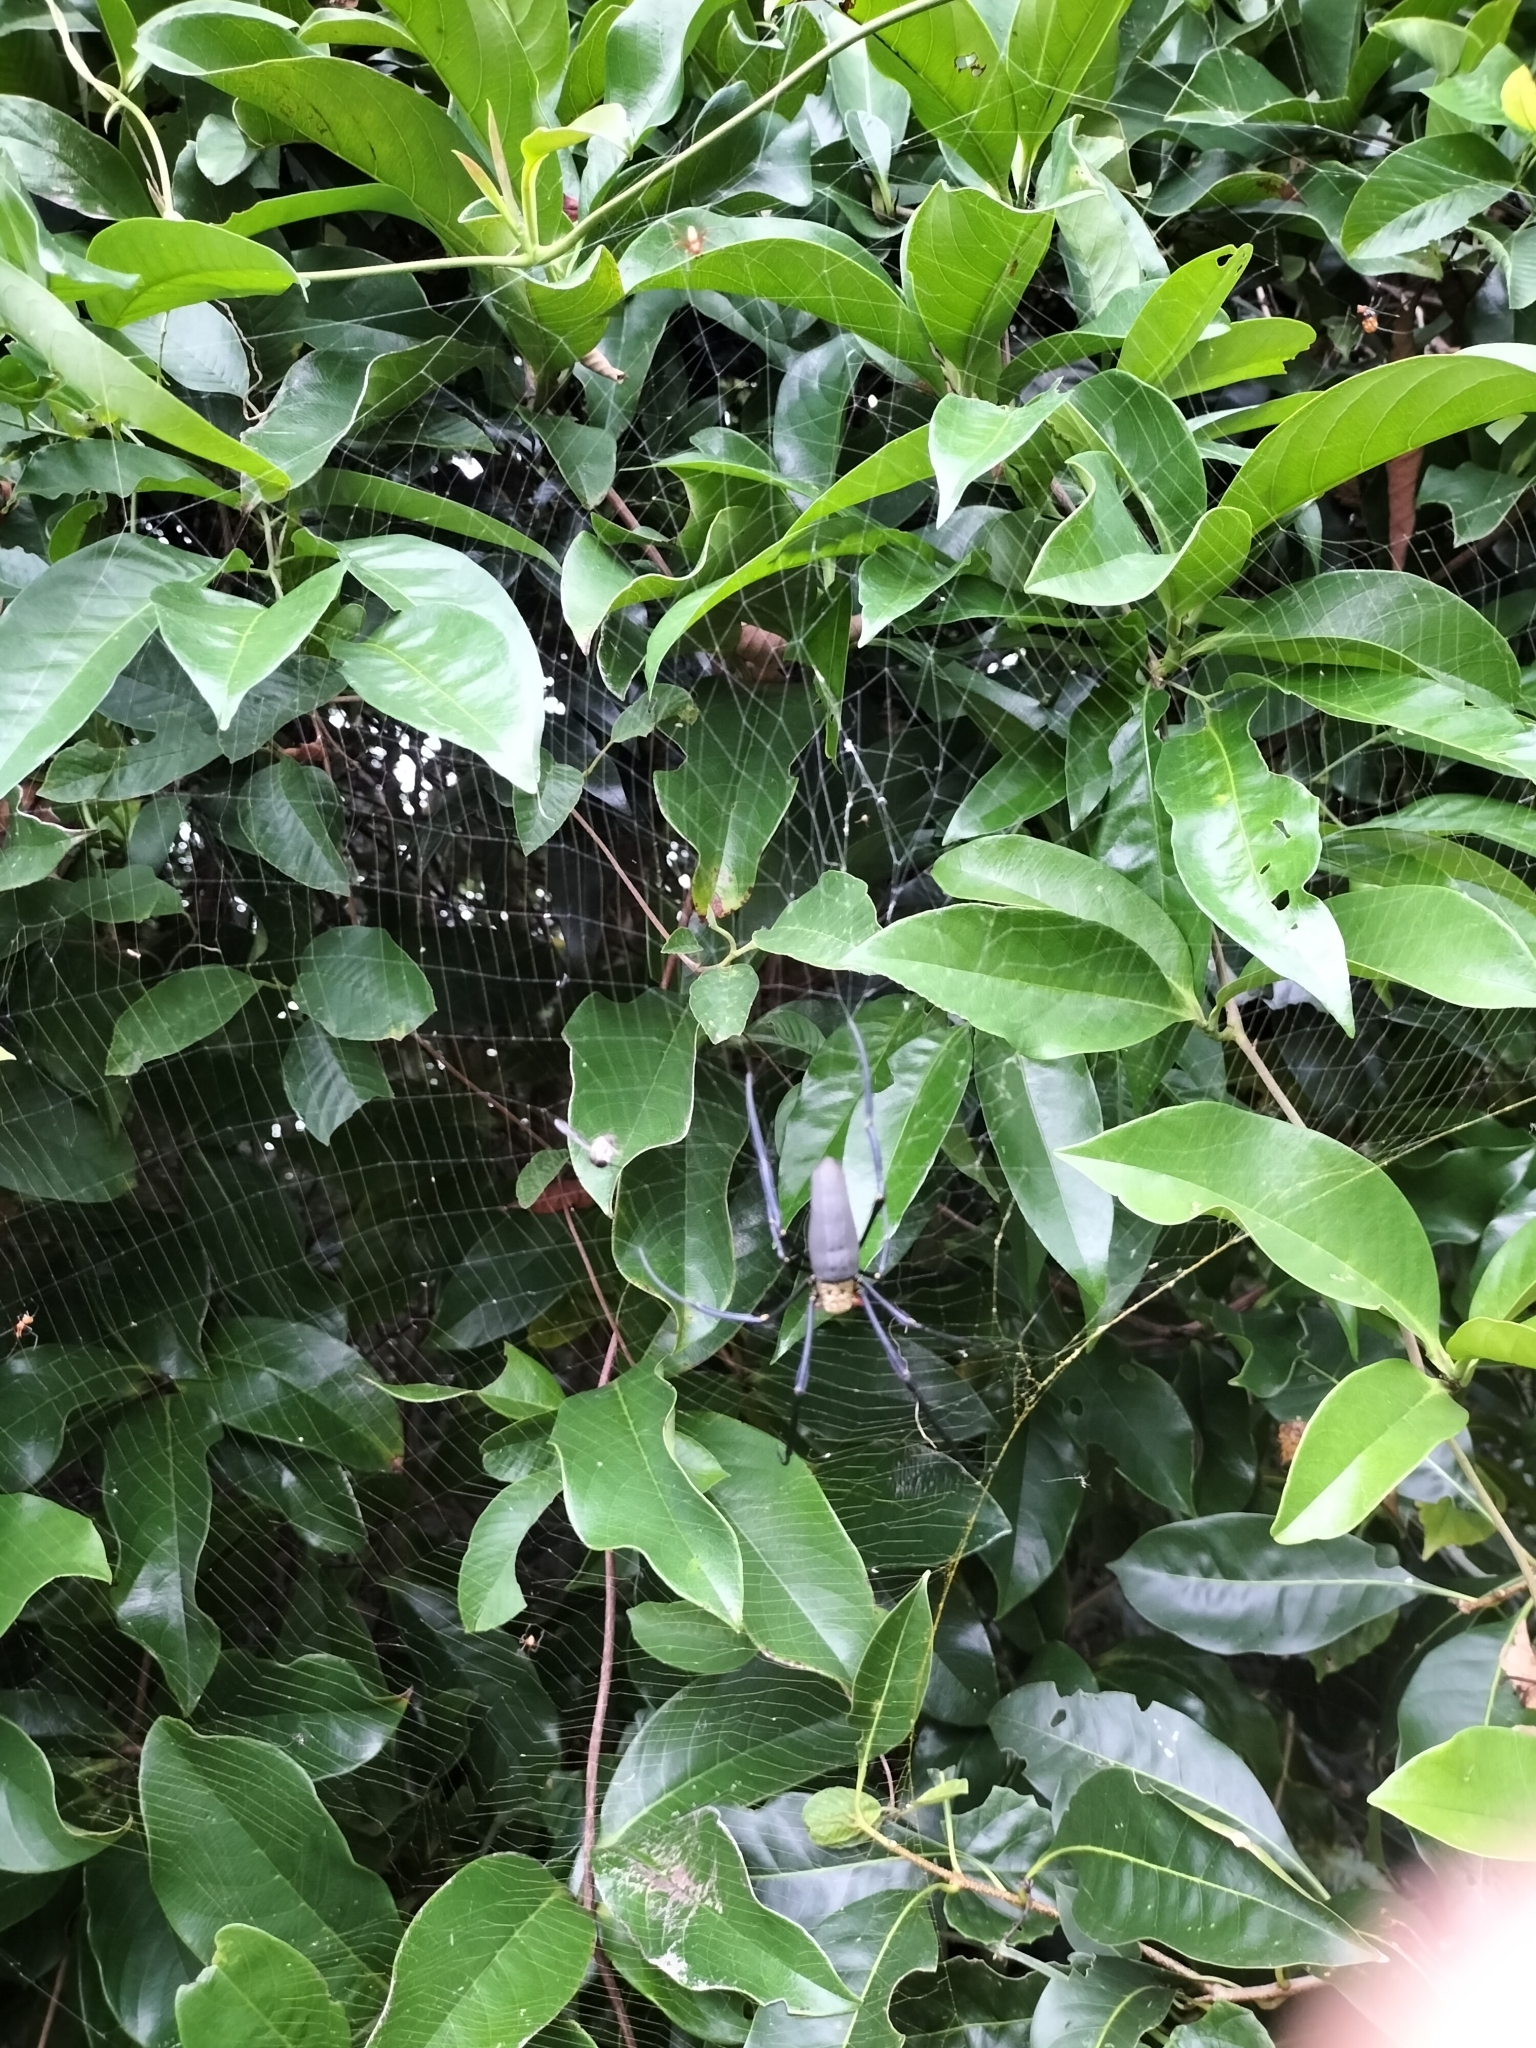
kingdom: Animalia
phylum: Arthropoda
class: Arachnida
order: Araneae
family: Araneidae
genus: Nephila
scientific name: Nephila pilipes
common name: Giant golden orb weaver
